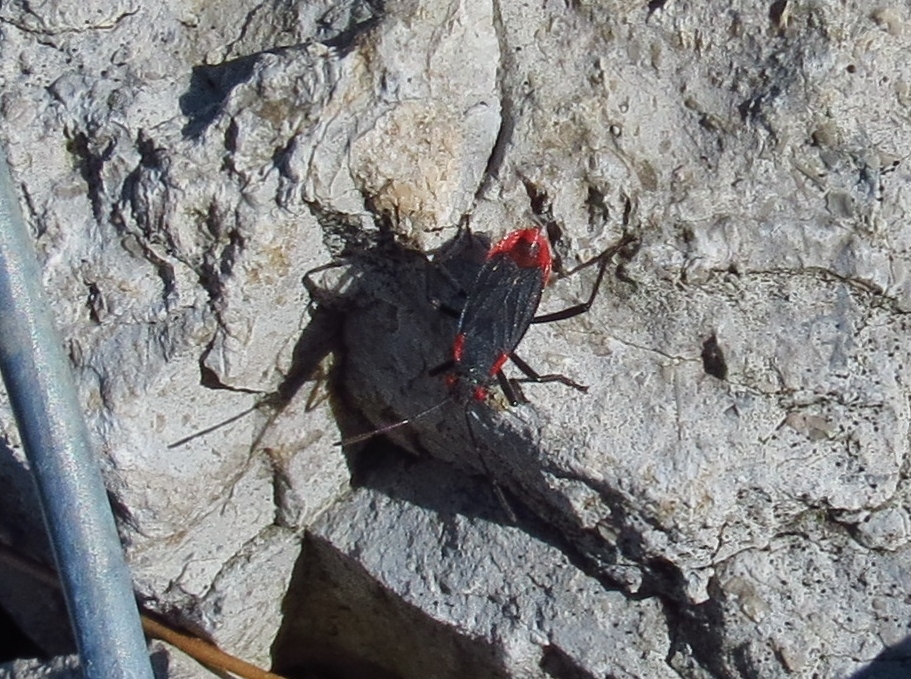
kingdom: Animalia
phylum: Arthropoda
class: Insecta
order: Hemiptera
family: Rhopalidae
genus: Jadera
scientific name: Jadera haematoloma
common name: Red-shouldered bug
